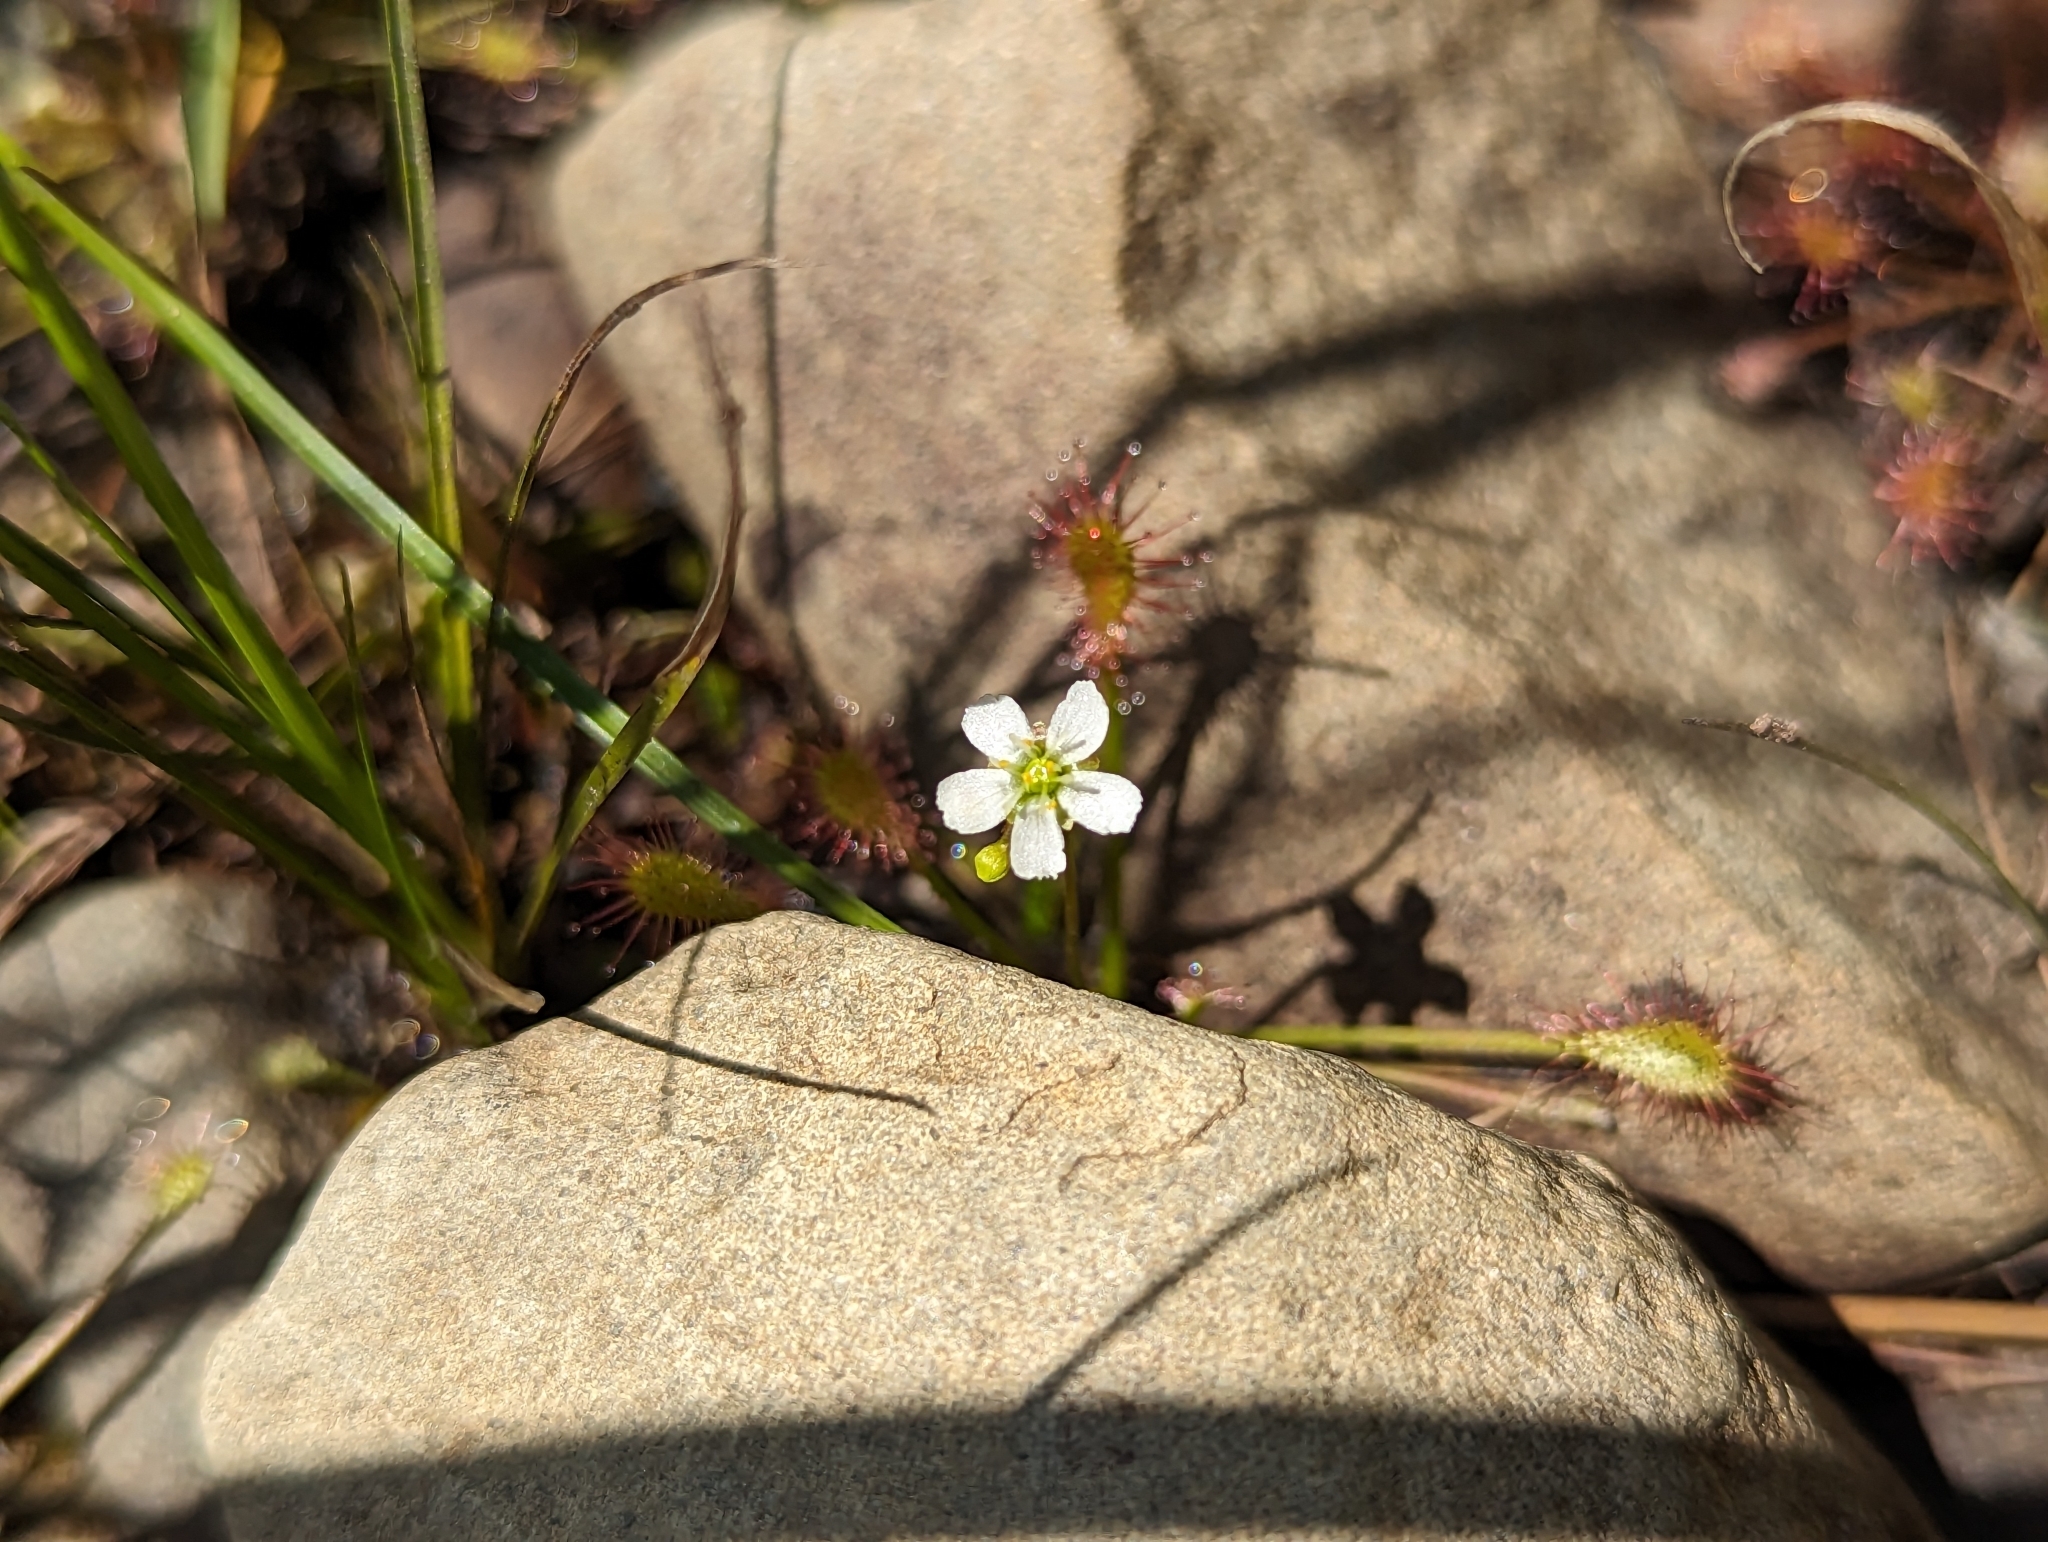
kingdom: Plantae
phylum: Tracheophyta
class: Magnoliopsida
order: Caryophyllales
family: Droseraceae
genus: Drosera
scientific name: Drosera intermedia
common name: Oblong-leaved sundew
